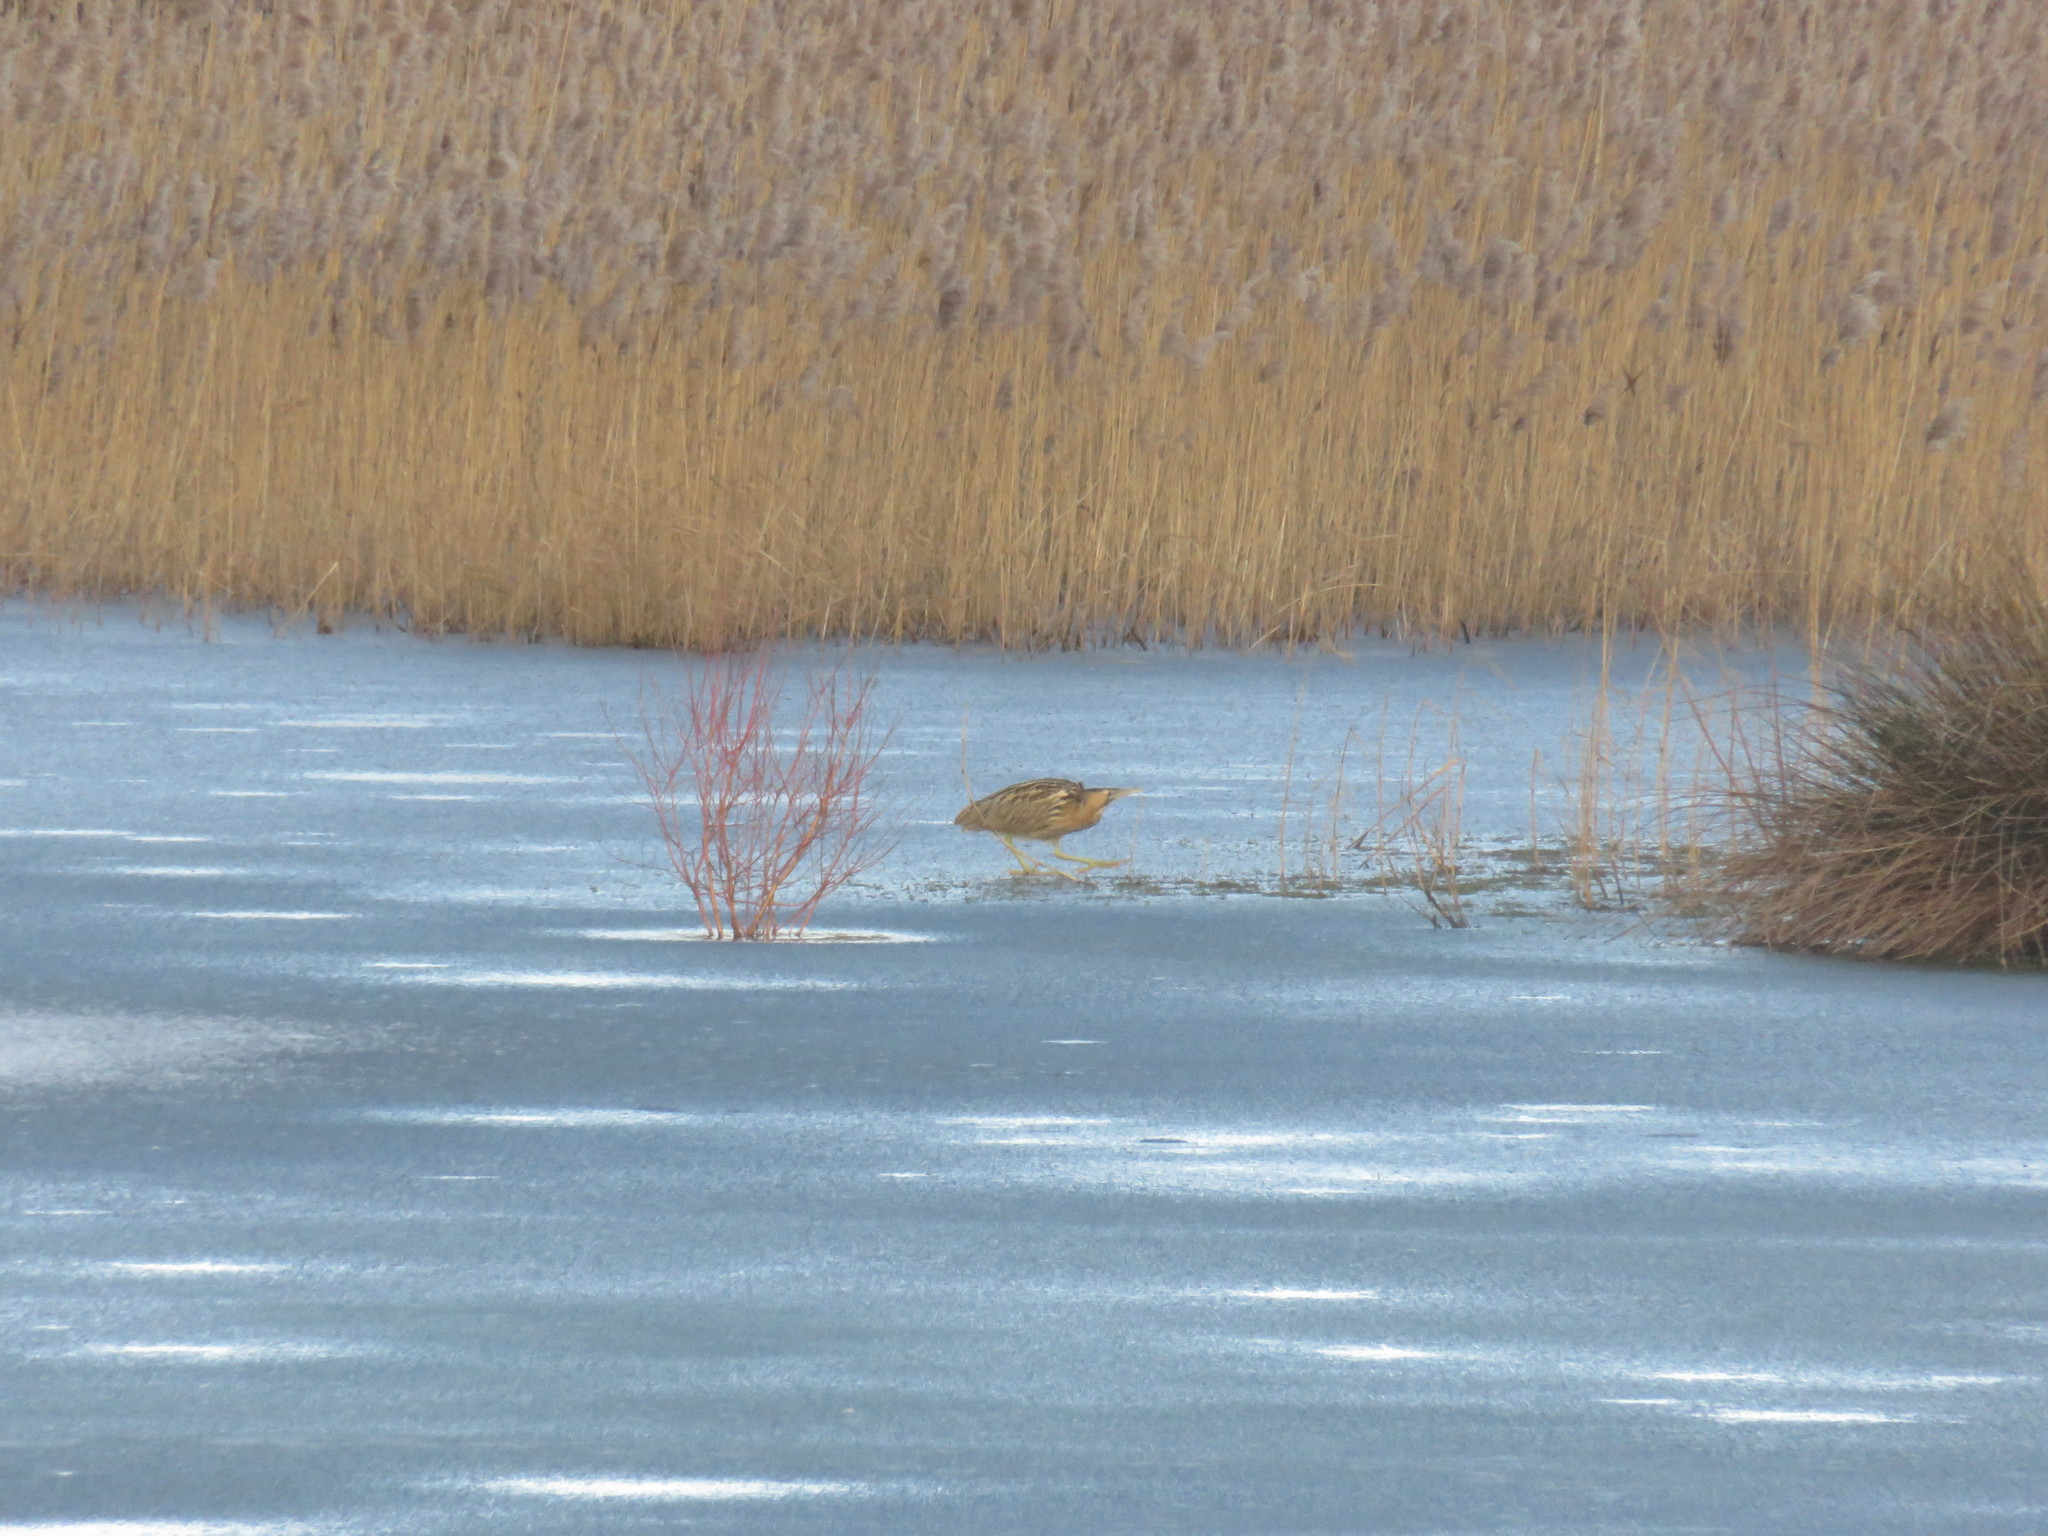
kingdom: Animalia
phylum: Chordata
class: Aves
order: Pelecaniformes
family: Ardeidae
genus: Botaurus
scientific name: Botaurus stellaris
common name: Eurasian bittern
